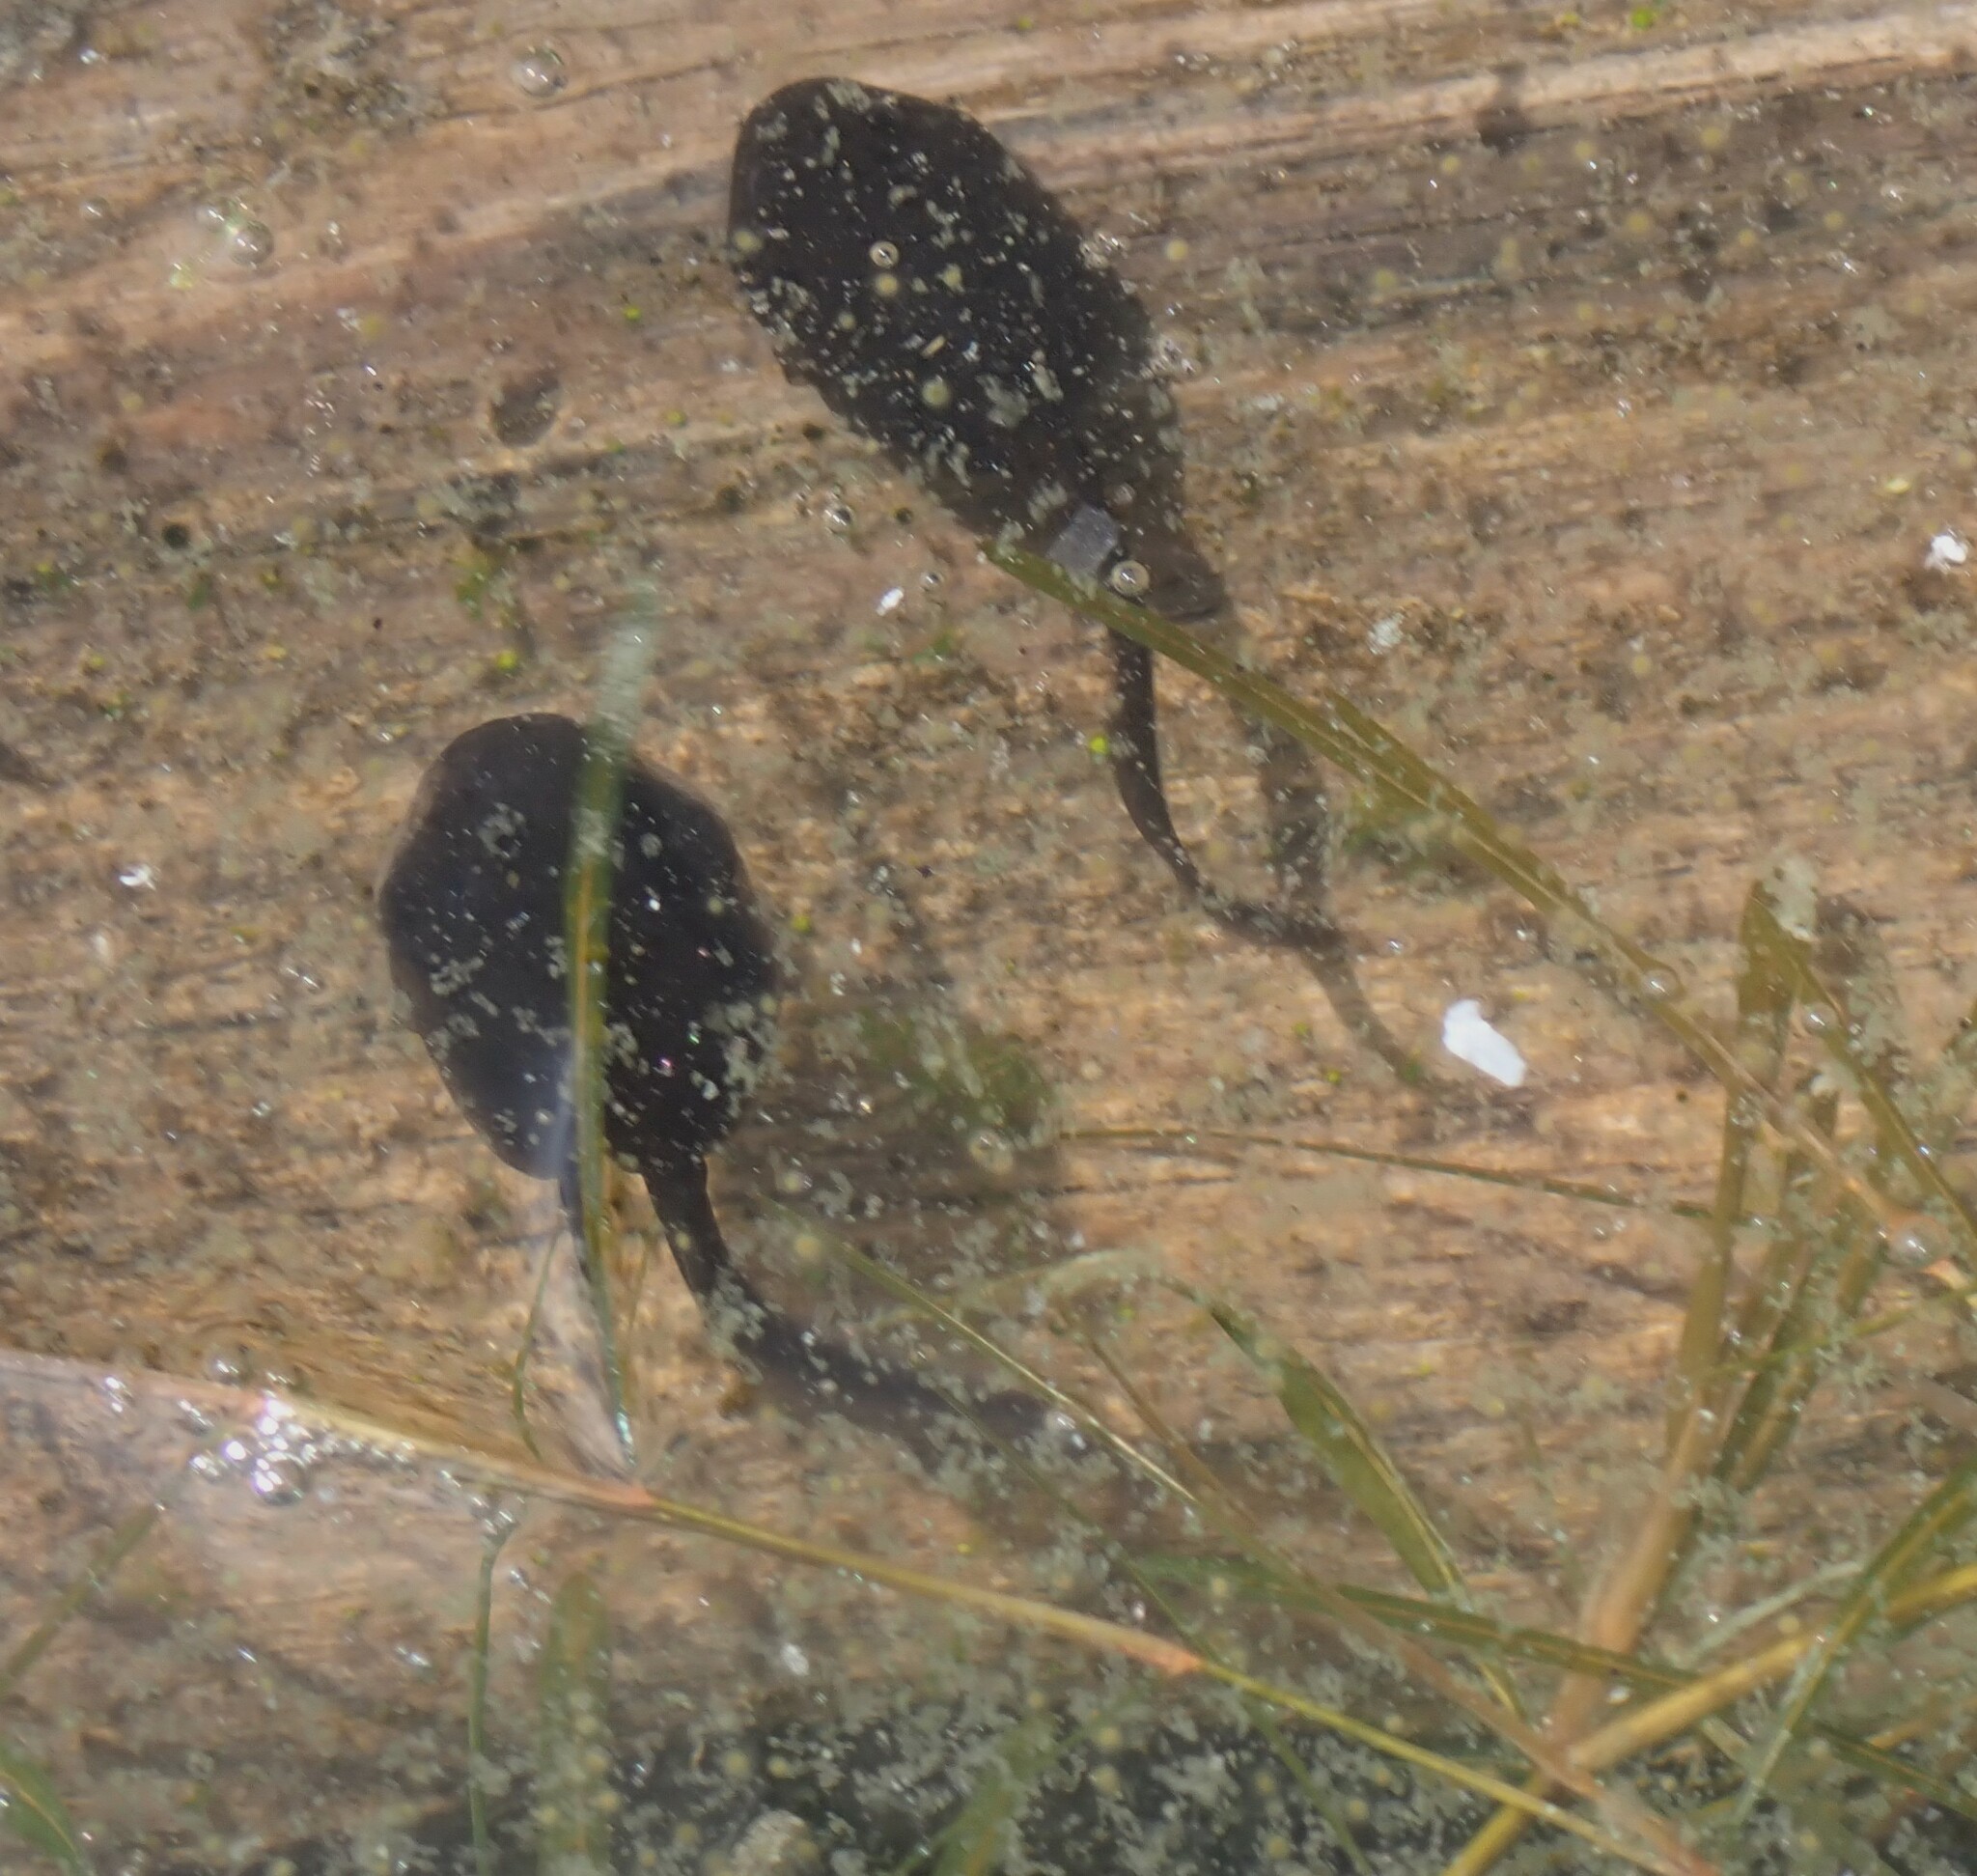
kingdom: Animalia
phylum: Chordata
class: Amphibia
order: Anura
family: Bufonidae
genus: Anaxyrus
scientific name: Anaxyrus boreas
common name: Western toad
